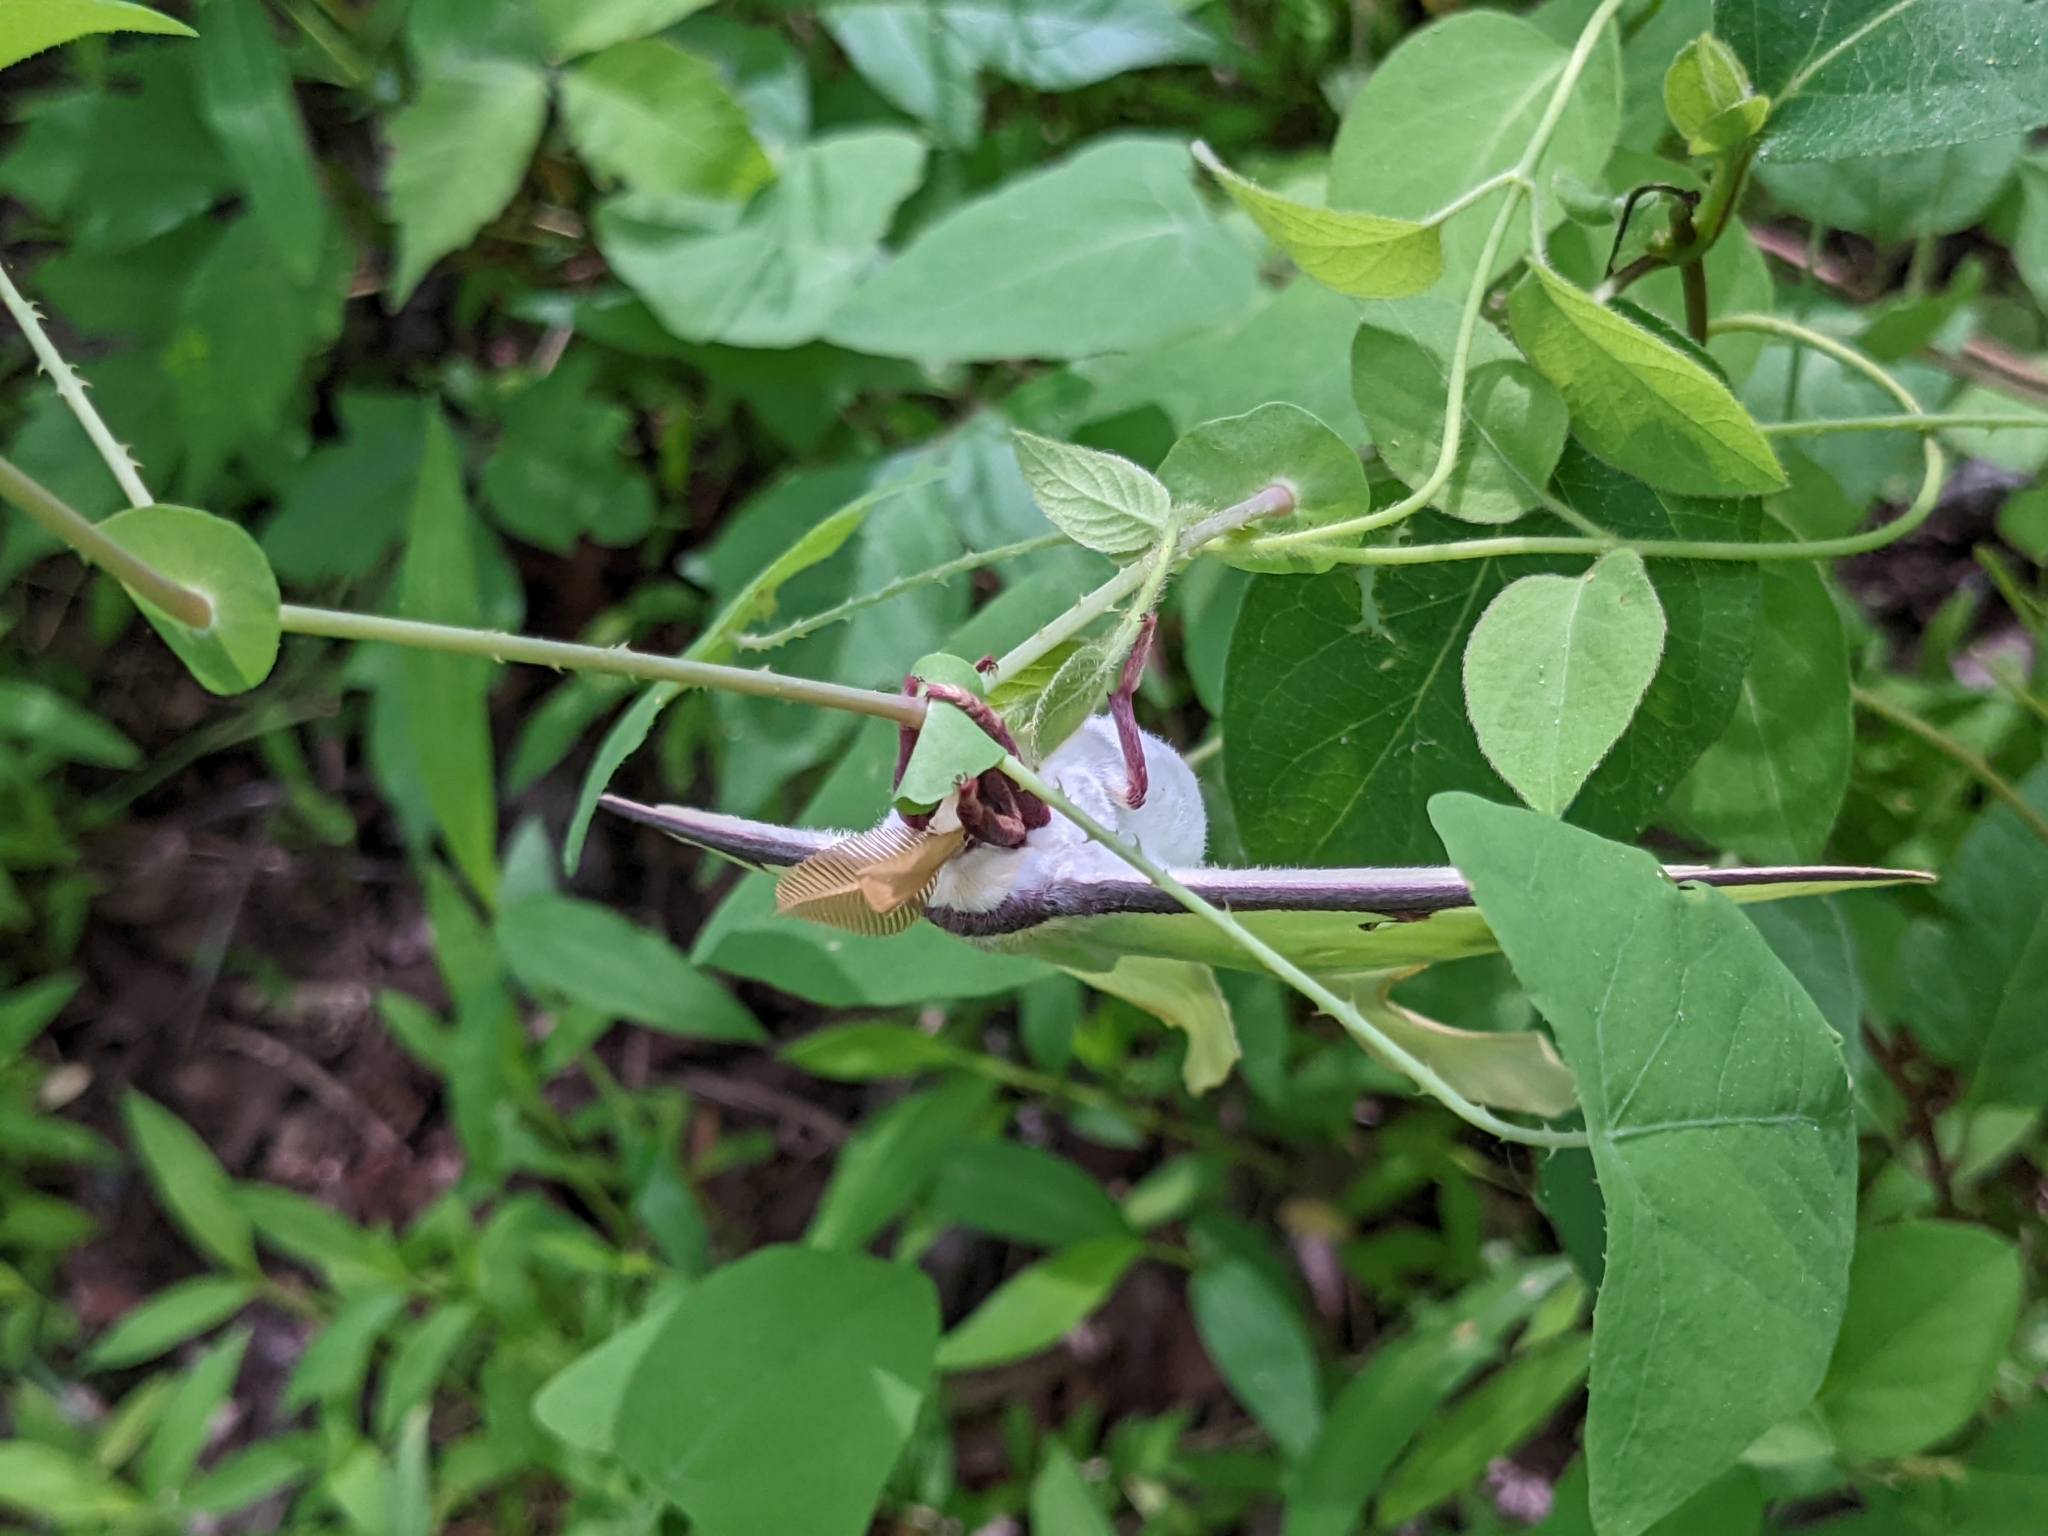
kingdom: Animalia
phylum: Arthropoda
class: Insecta
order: Lepidoptera
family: Saturniidae
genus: Actias
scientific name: Actias luna
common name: Luna moth
